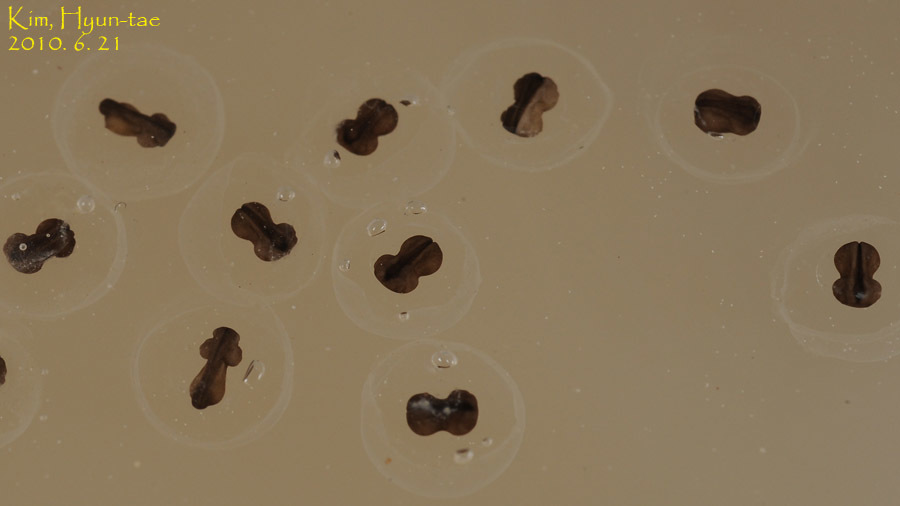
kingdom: Animalia
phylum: Chordata
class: Amphibia
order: Anura
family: Microhylidae
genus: Kaloula
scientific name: Kaloula borealis
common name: Boreal digging frog
